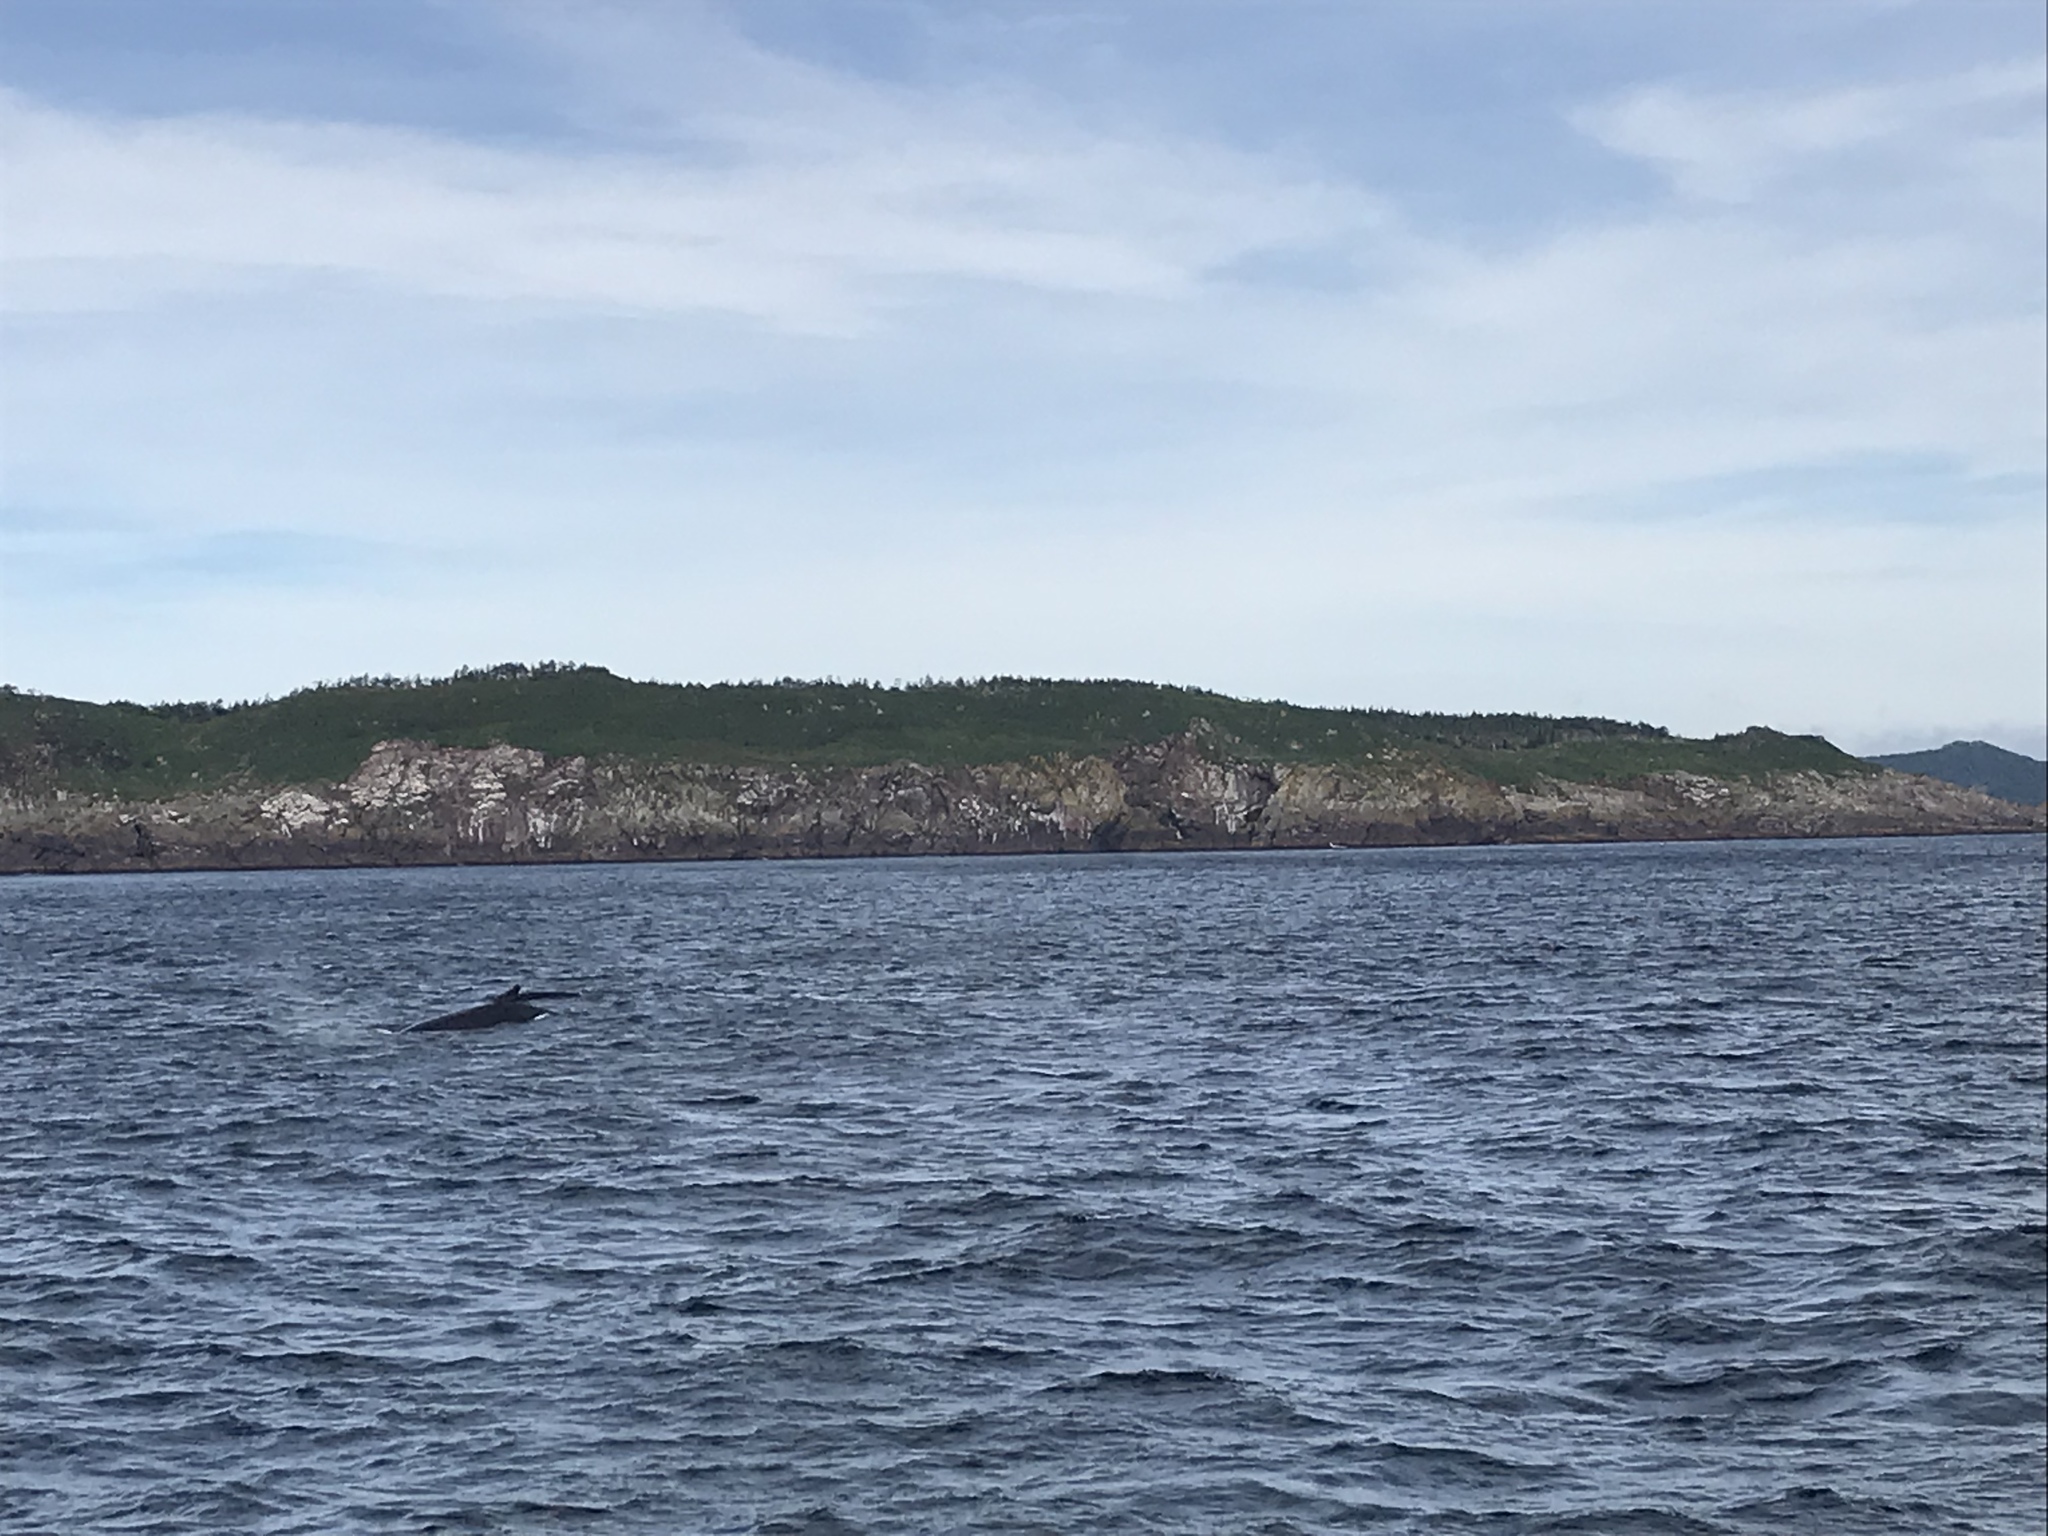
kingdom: Animalia
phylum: Chordata
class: Mammalia
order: Cetacea
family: Balaenopteridae
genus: Megaptera
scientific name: Megaptera novaeangliae
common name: Humpback whale
